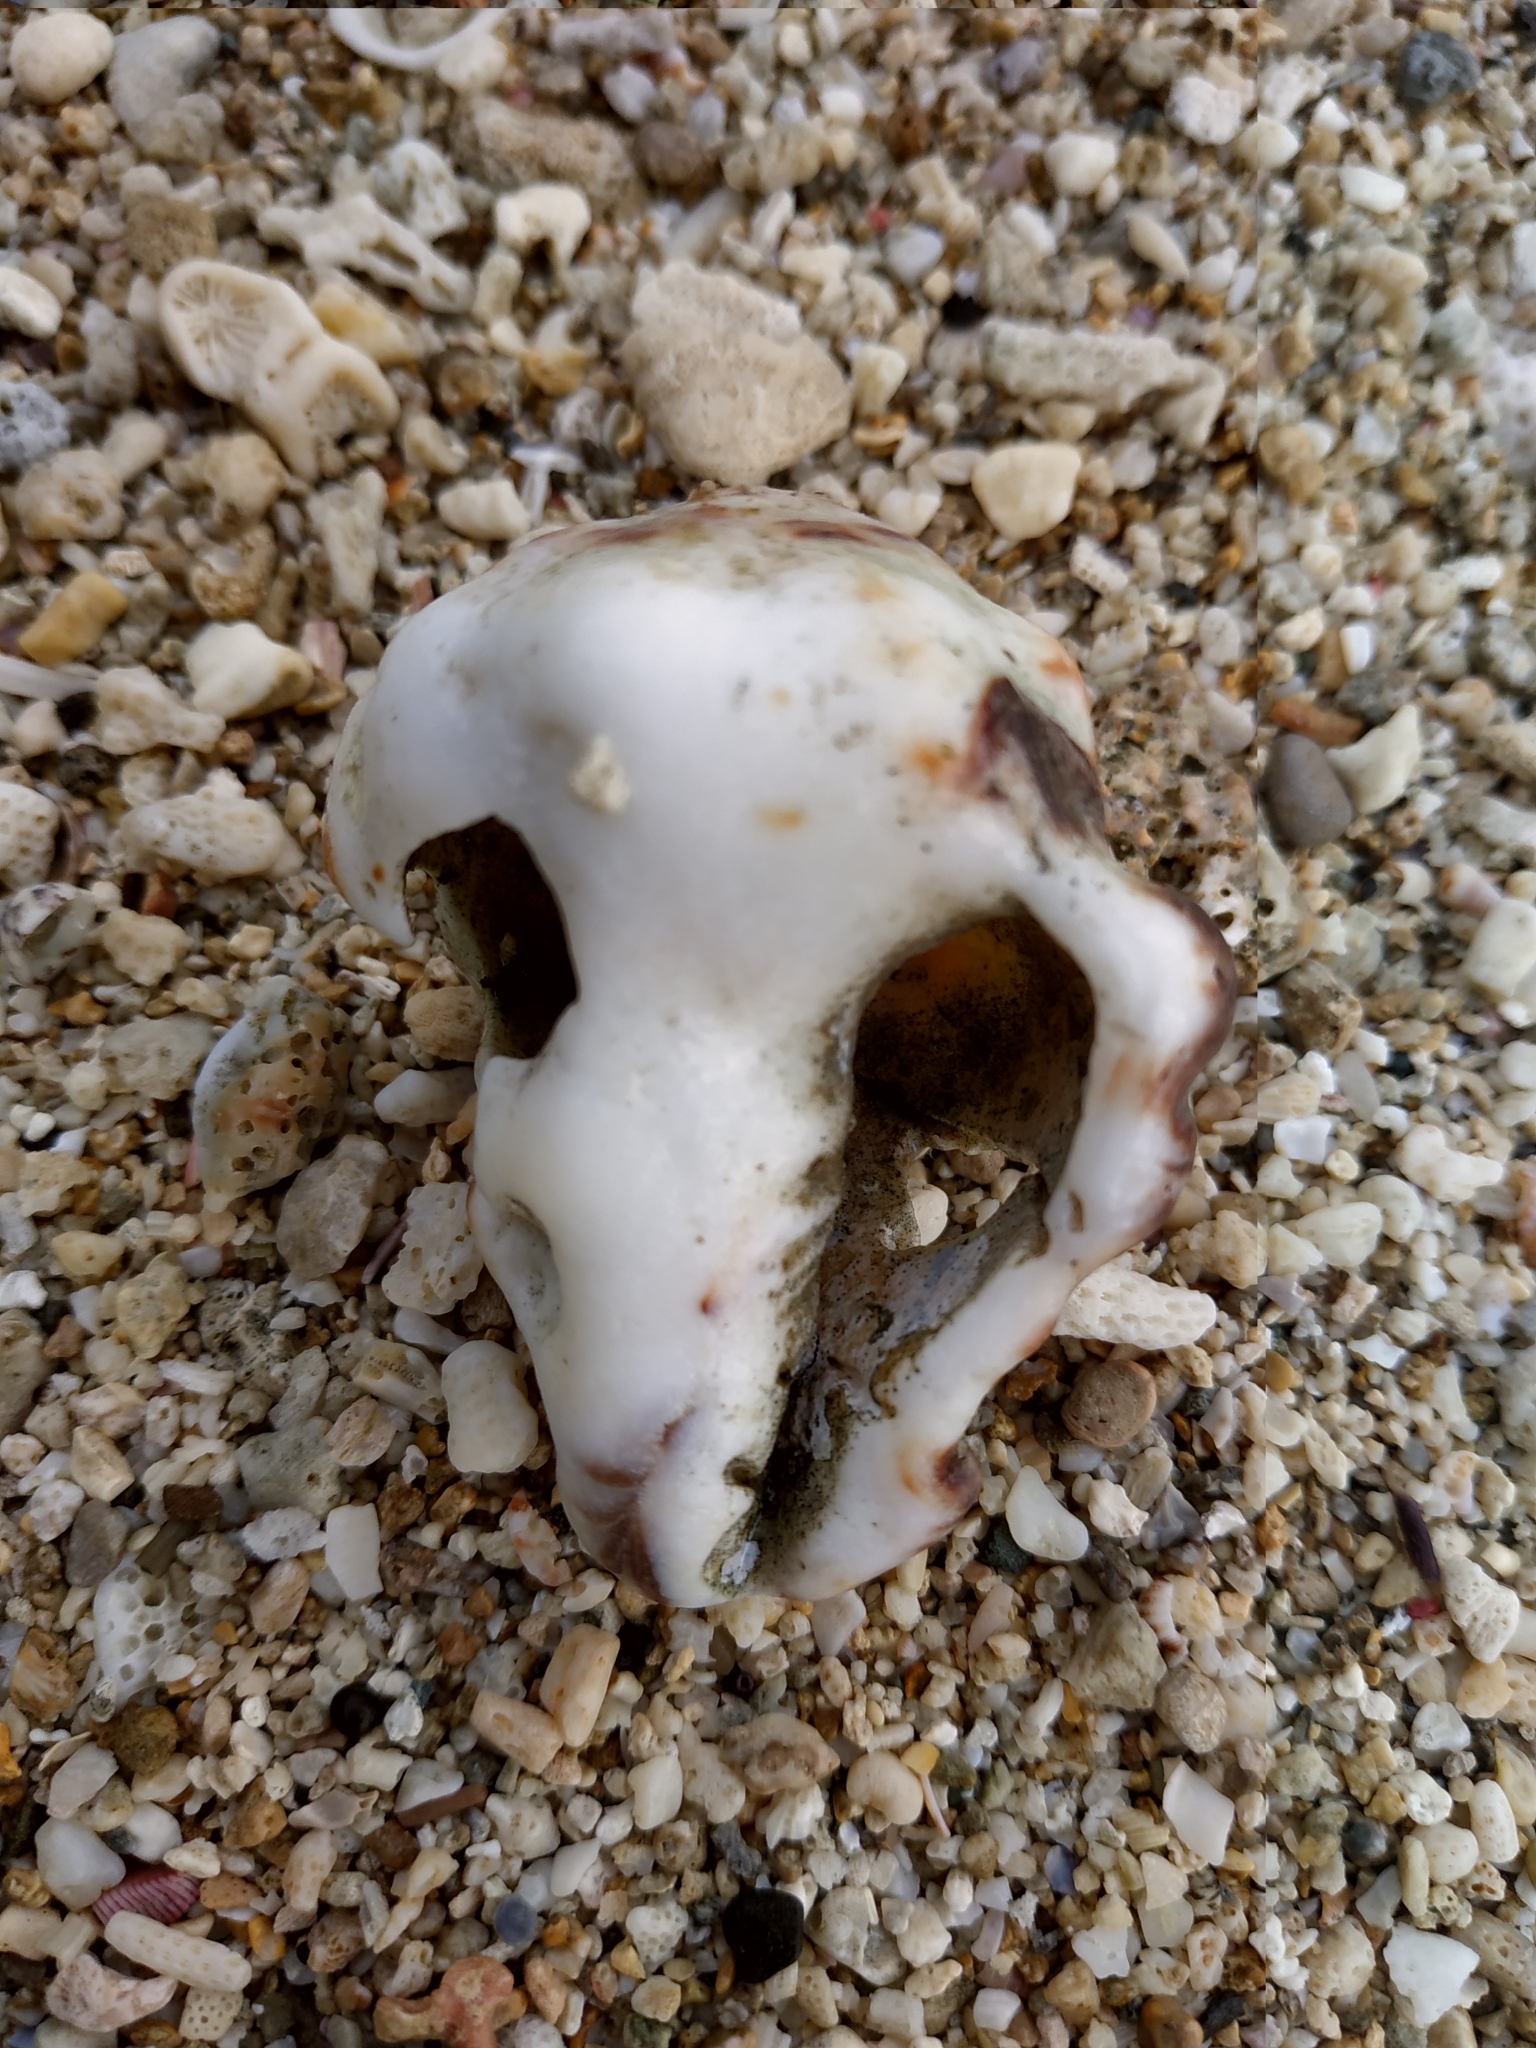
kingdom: Animalia
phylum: Mollusca
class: Gastropoda
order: Neogastropoda
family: Turbinellidae
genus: Vasum
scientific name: Vasum turbinellus
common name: Pacific top vase
